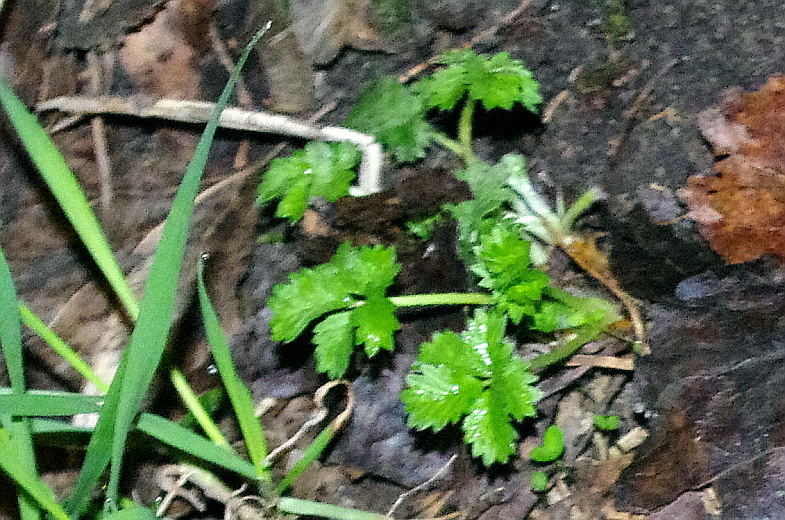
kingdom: Plantae
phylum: Tracheophyta
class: Magnoliopsida
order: Rosales
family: Rosaceae
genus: Potentilla
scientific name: Potentilla intermedia
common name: Downy cinquefoil
